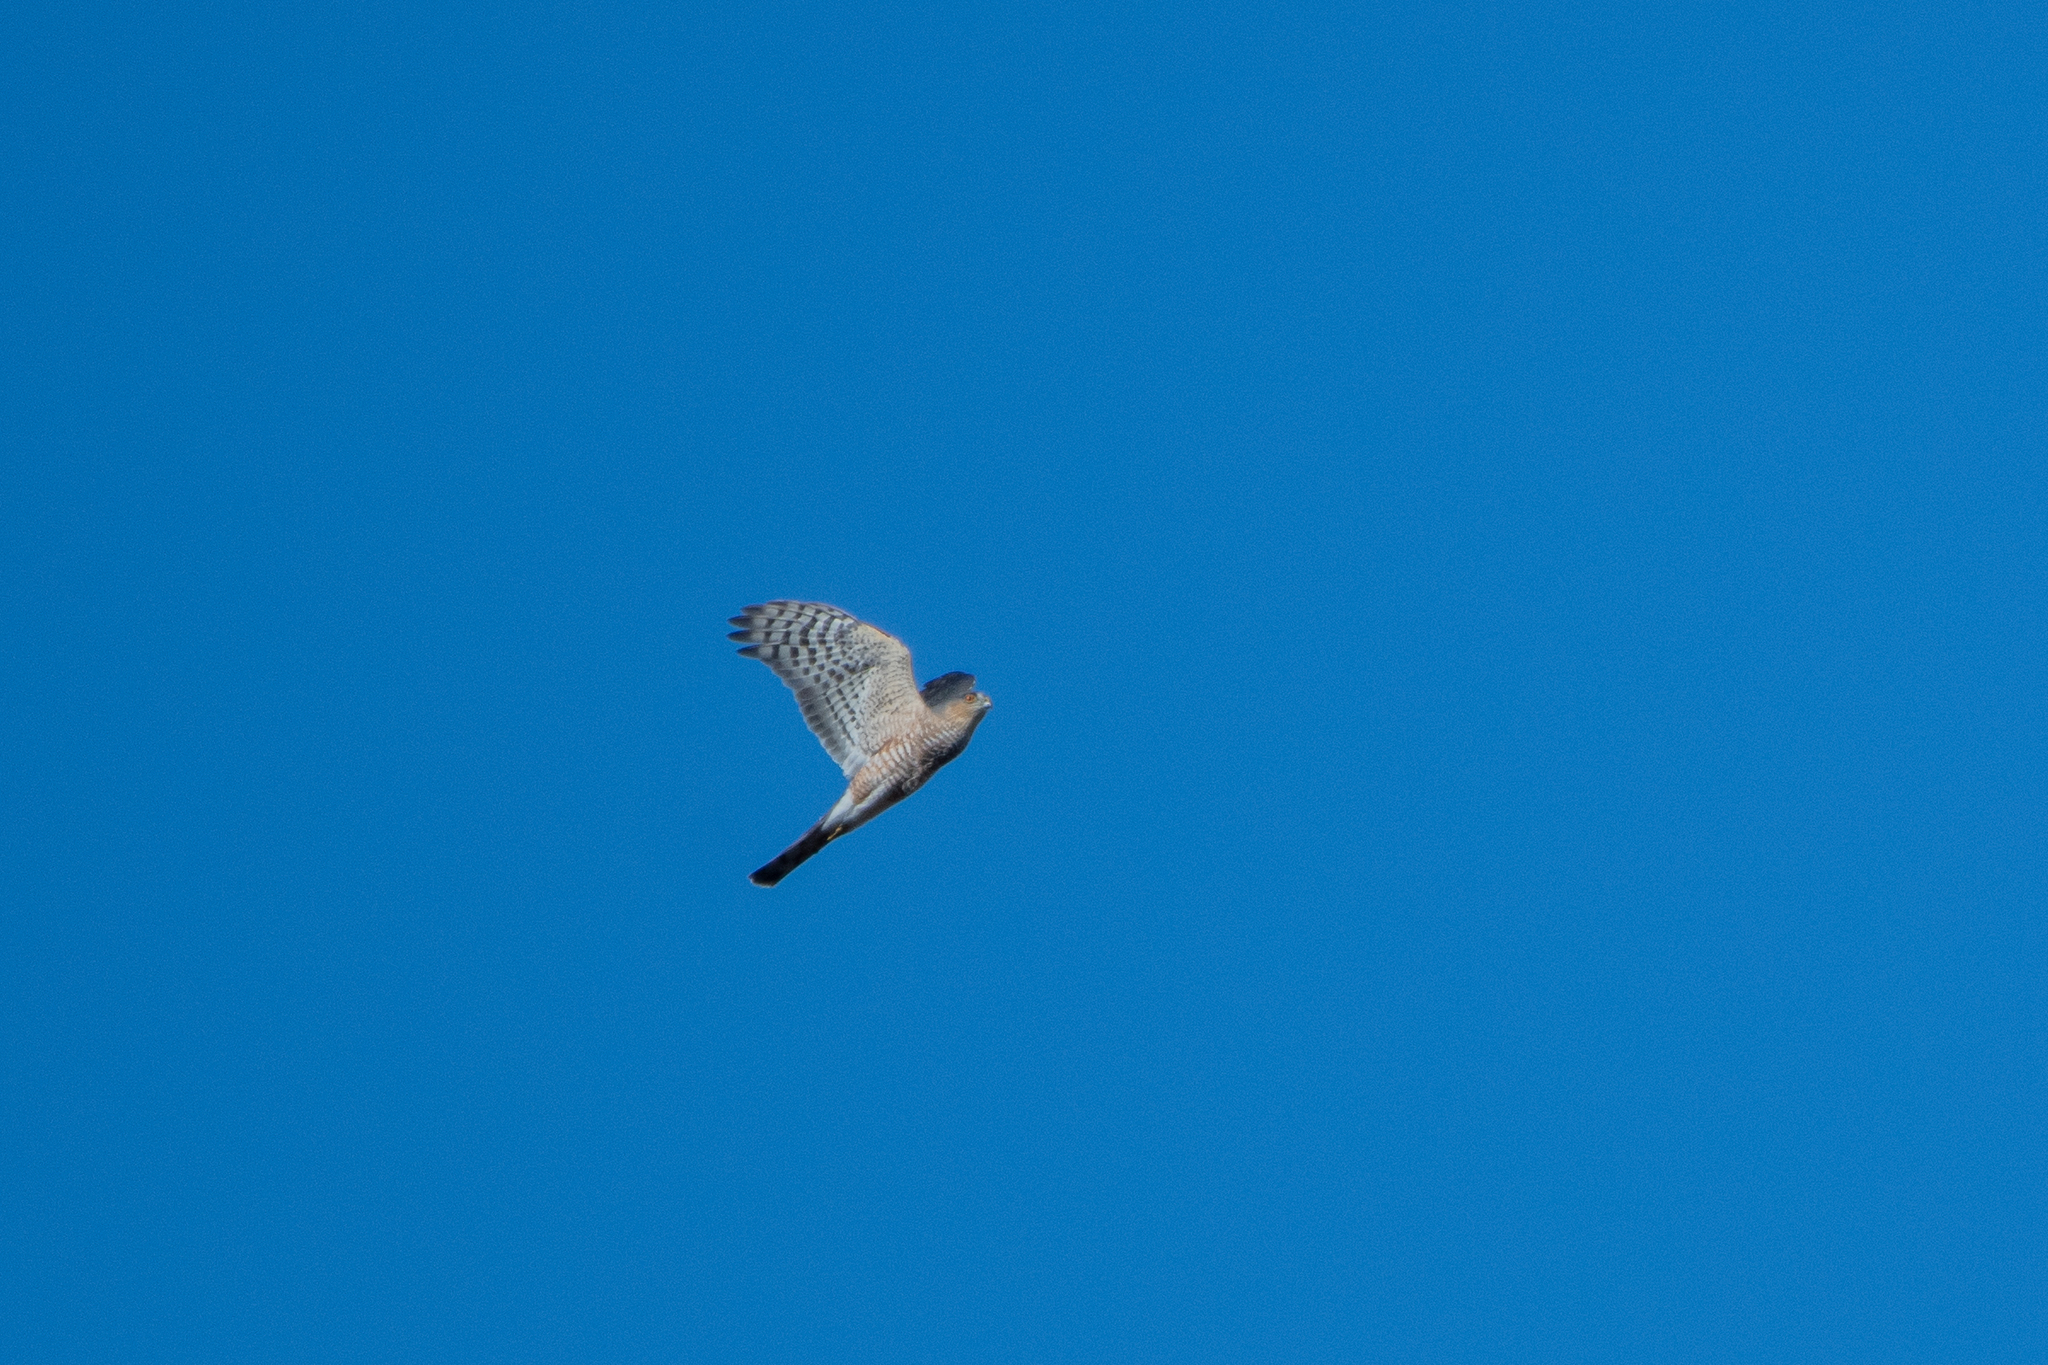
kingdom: Animalia
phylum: Chordata
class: Aves
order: Accipitriformes
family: Accipitridae
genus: Accipiter
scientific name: Accipiter striatus
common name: Sharp-shinned hawk
